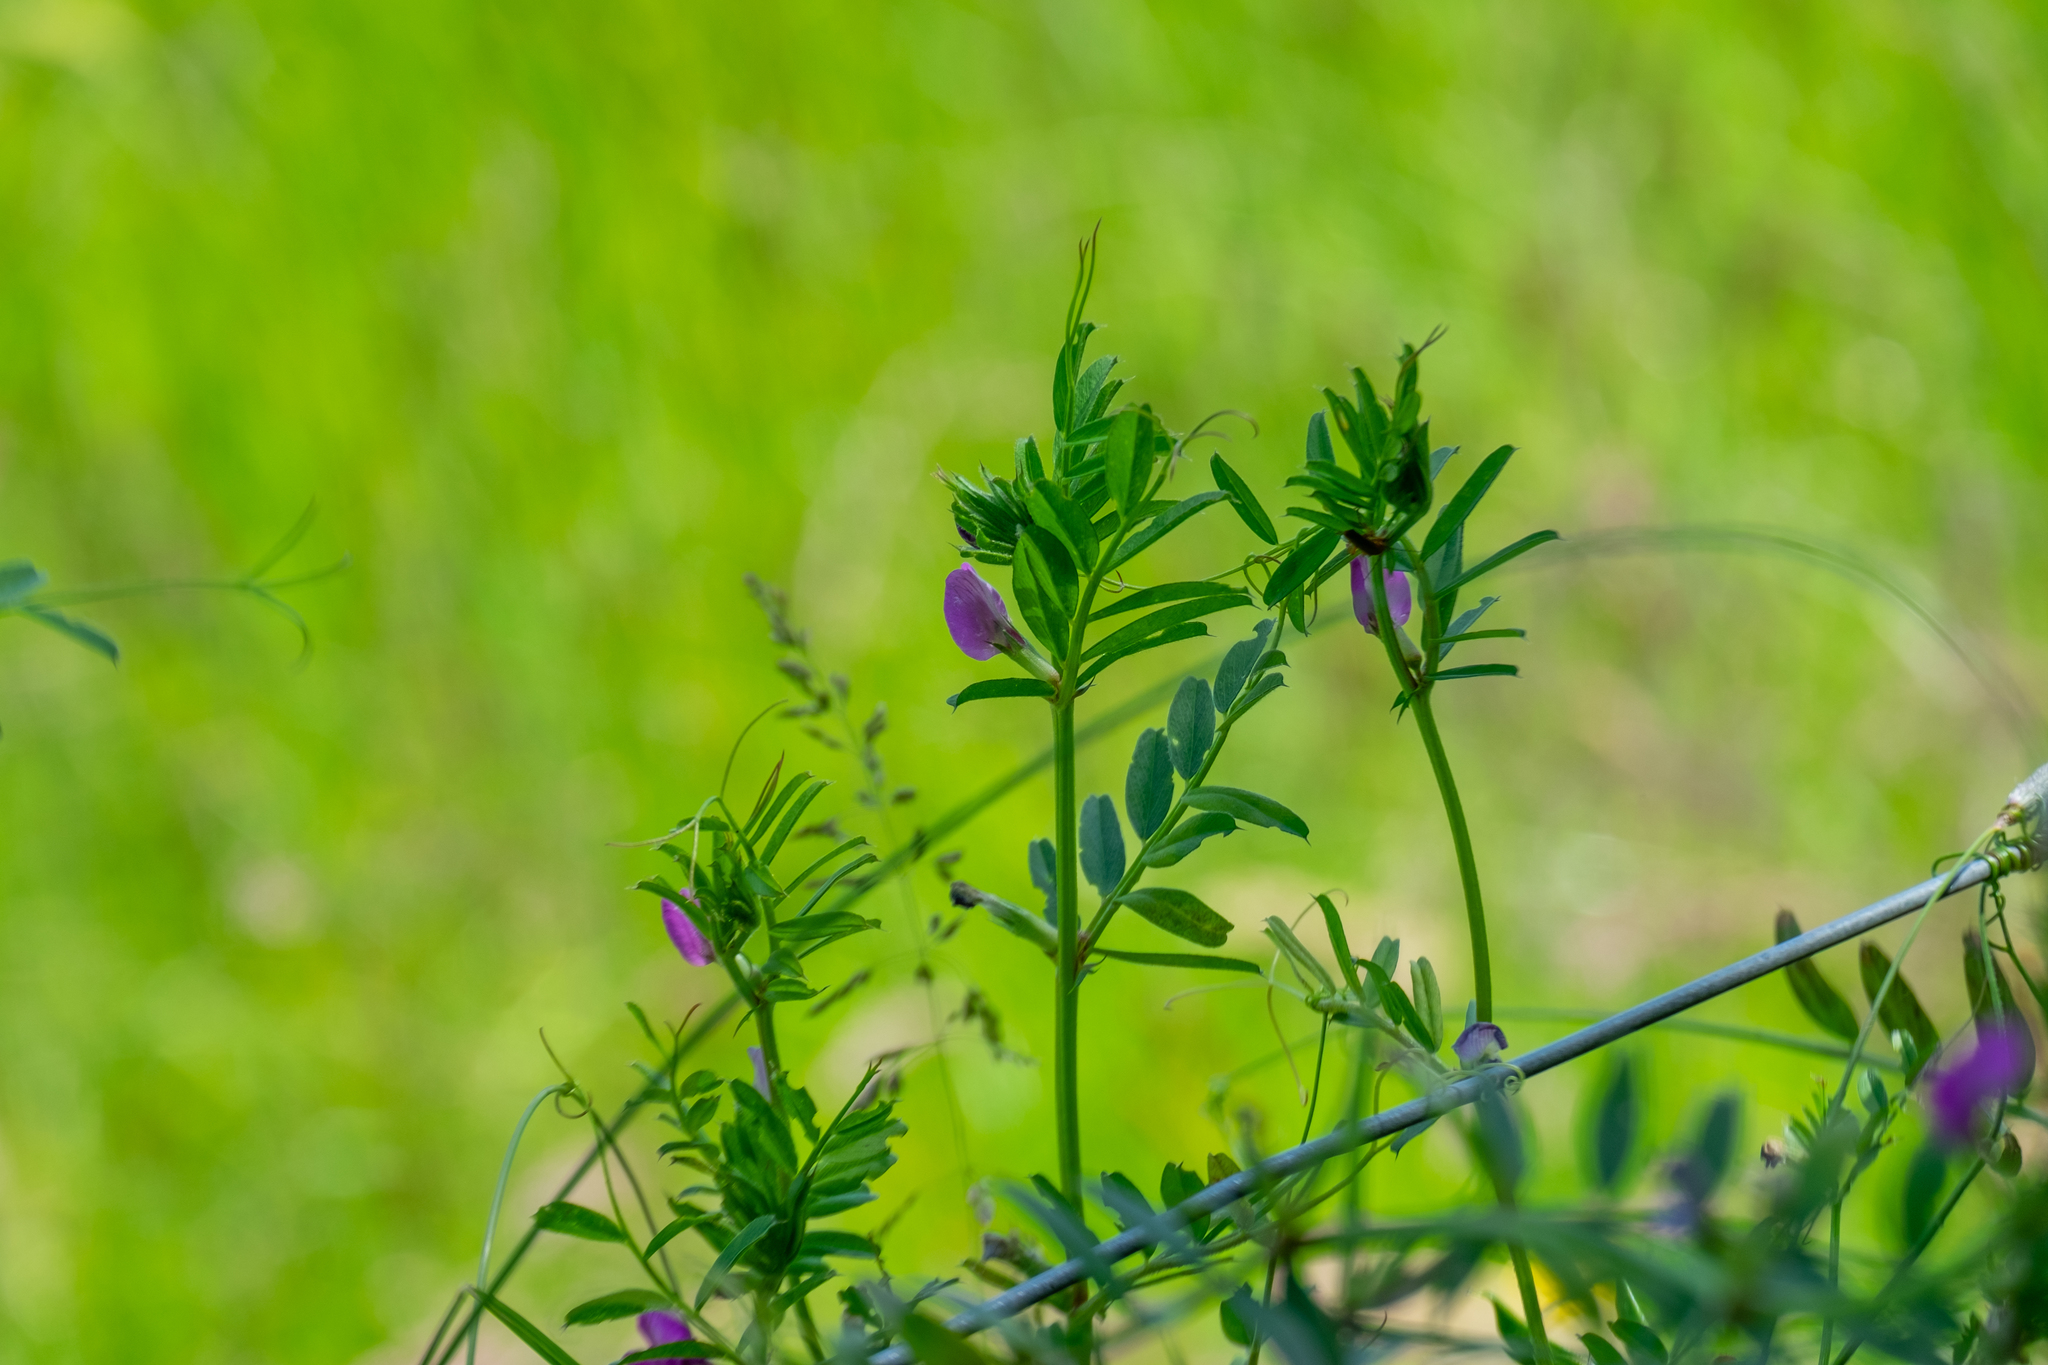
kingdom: Plantae
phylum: Tracheophyta
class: Magnoliopsida
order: Fabales
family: Fabaceae
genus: Vicia
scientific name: Vicia sativa
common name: Garden vetch
